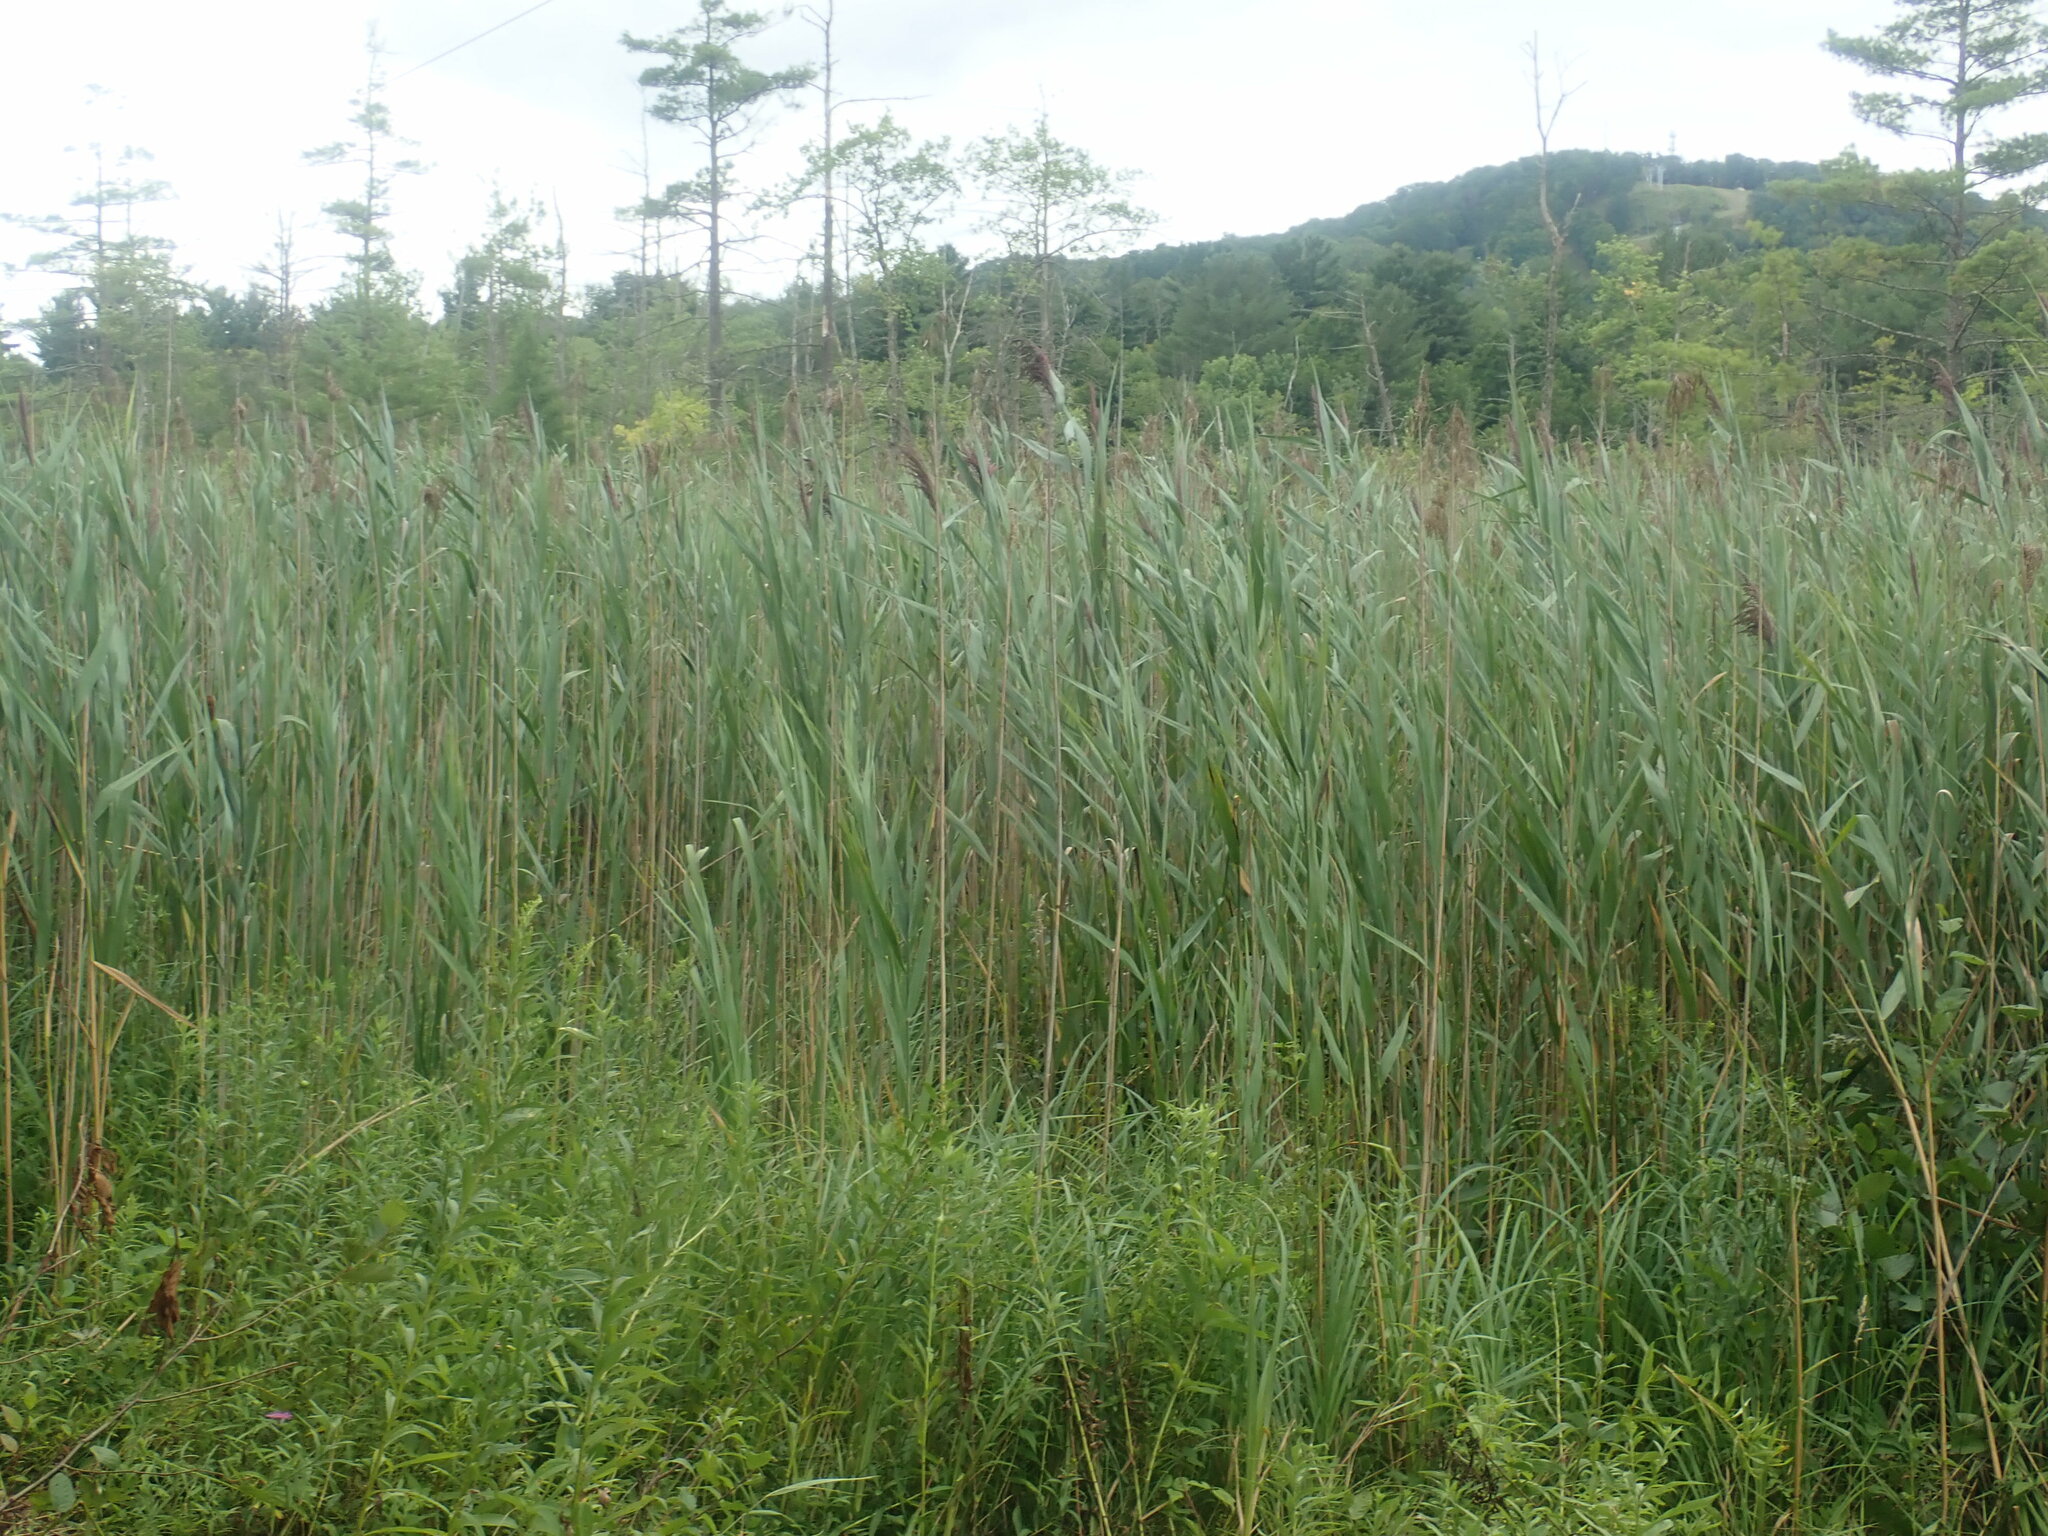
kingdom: Plantae
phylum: Tracheophyta
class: Liliopsida
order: Poales
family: Poaceae
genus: Phragmites
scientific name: Phragmites australis
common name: Common reed
